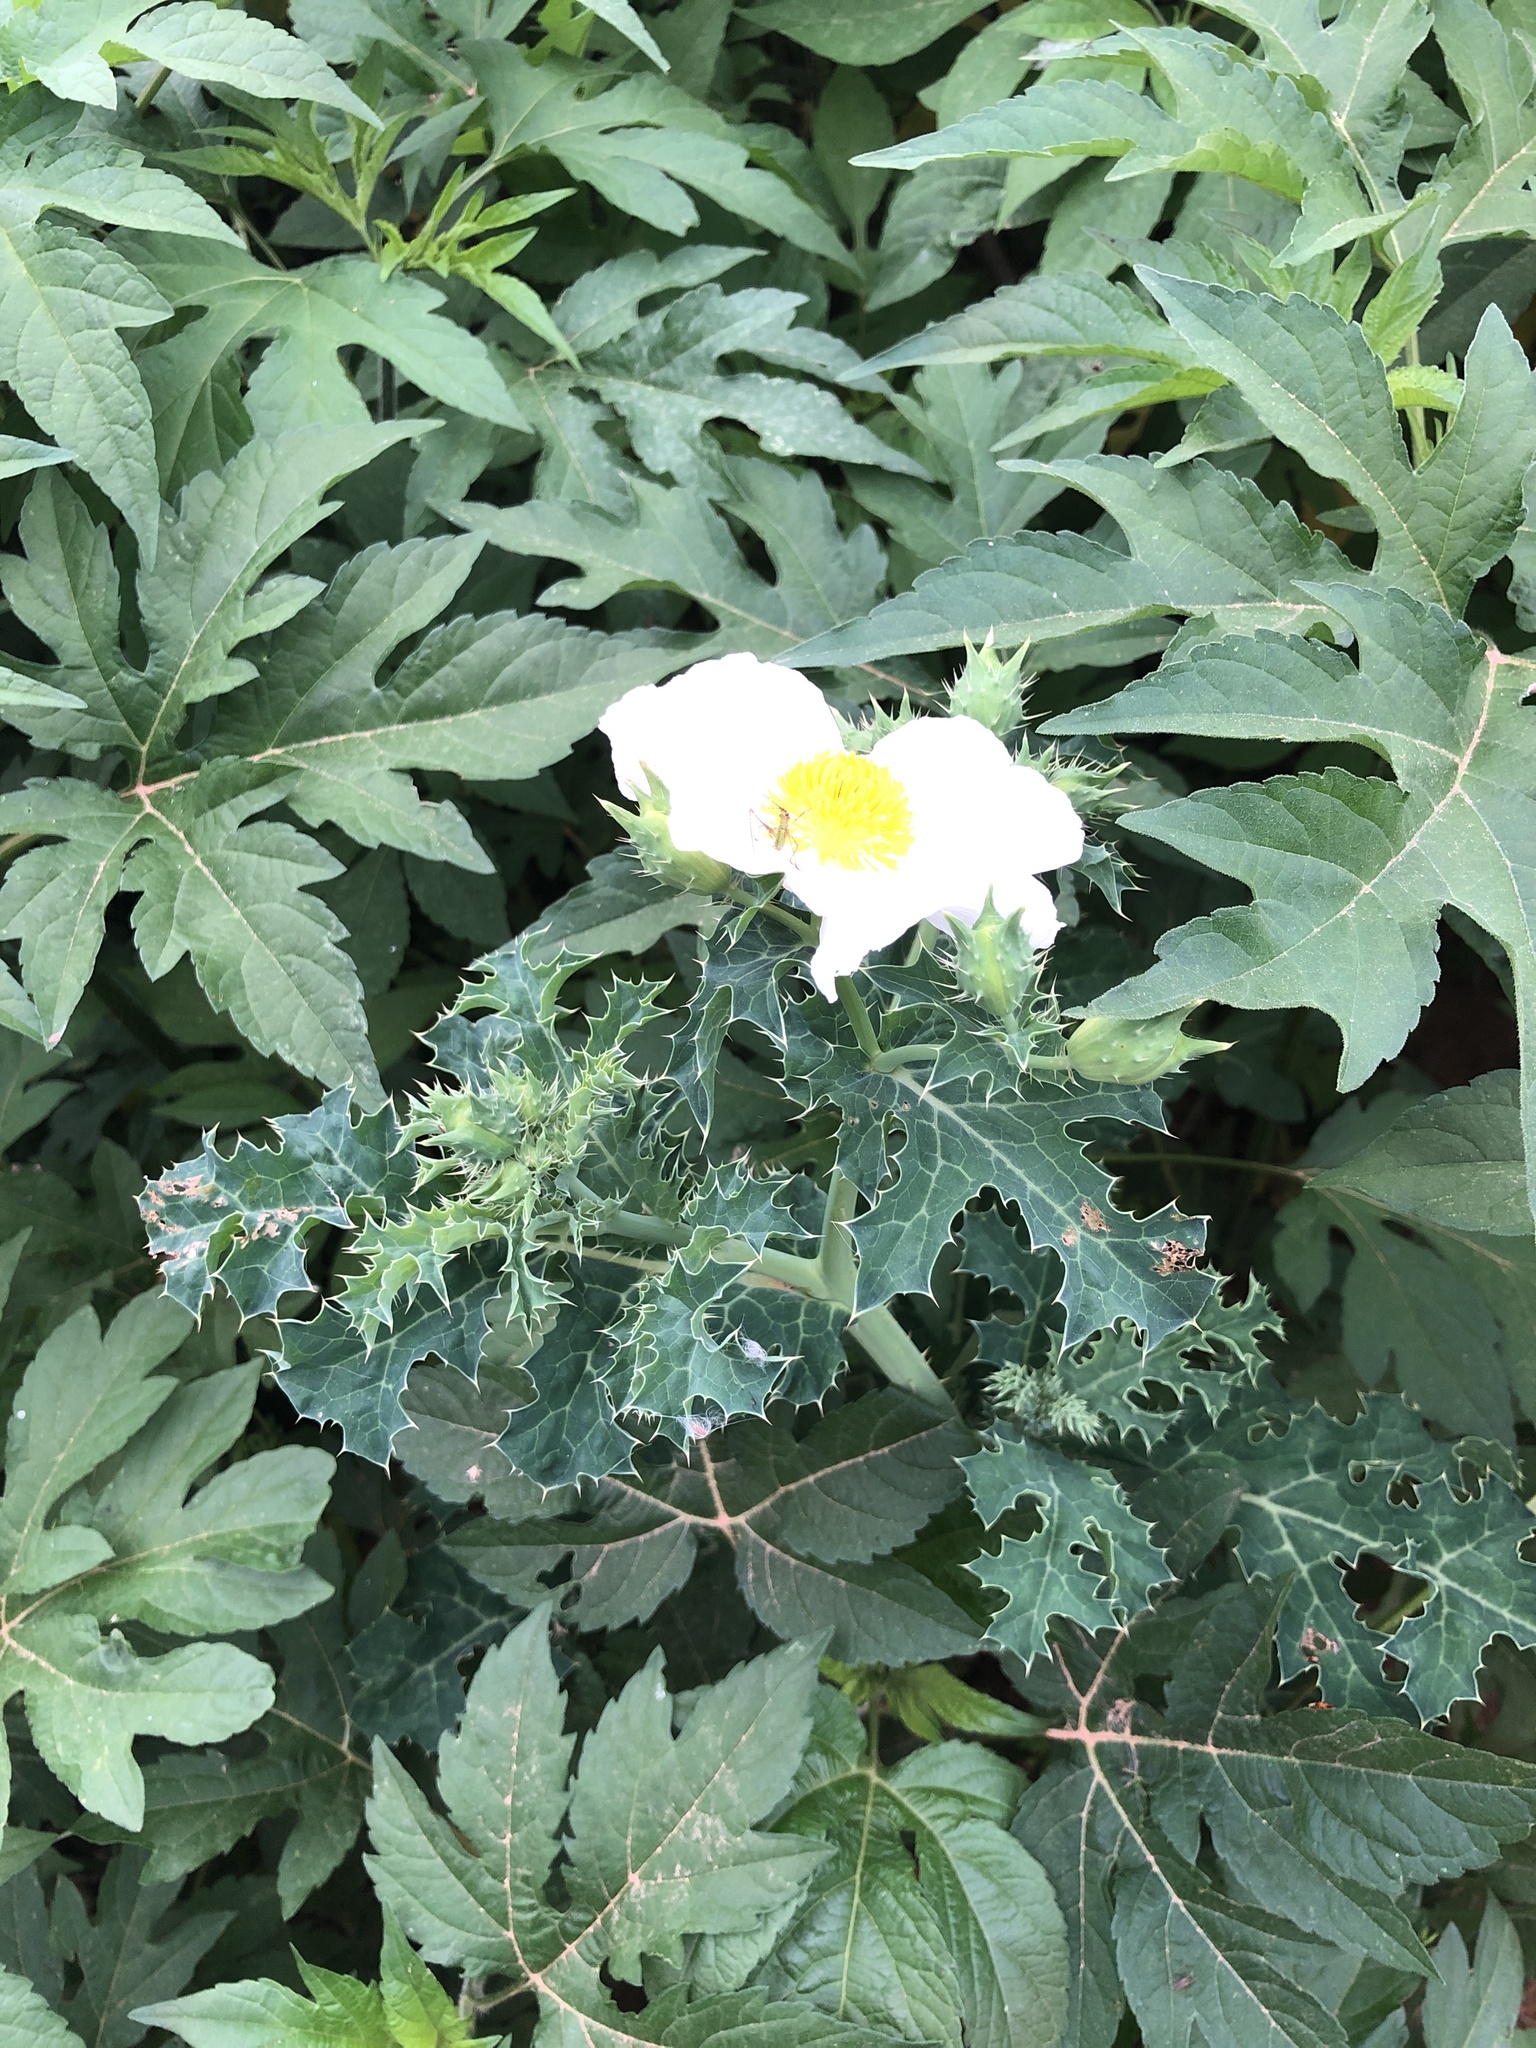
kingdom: Plantae
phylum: Tracheophyta
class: Magnoliopsida
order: Ranunculales
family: Papaveraceae
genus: Argemone
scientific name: Argemone albiflora
